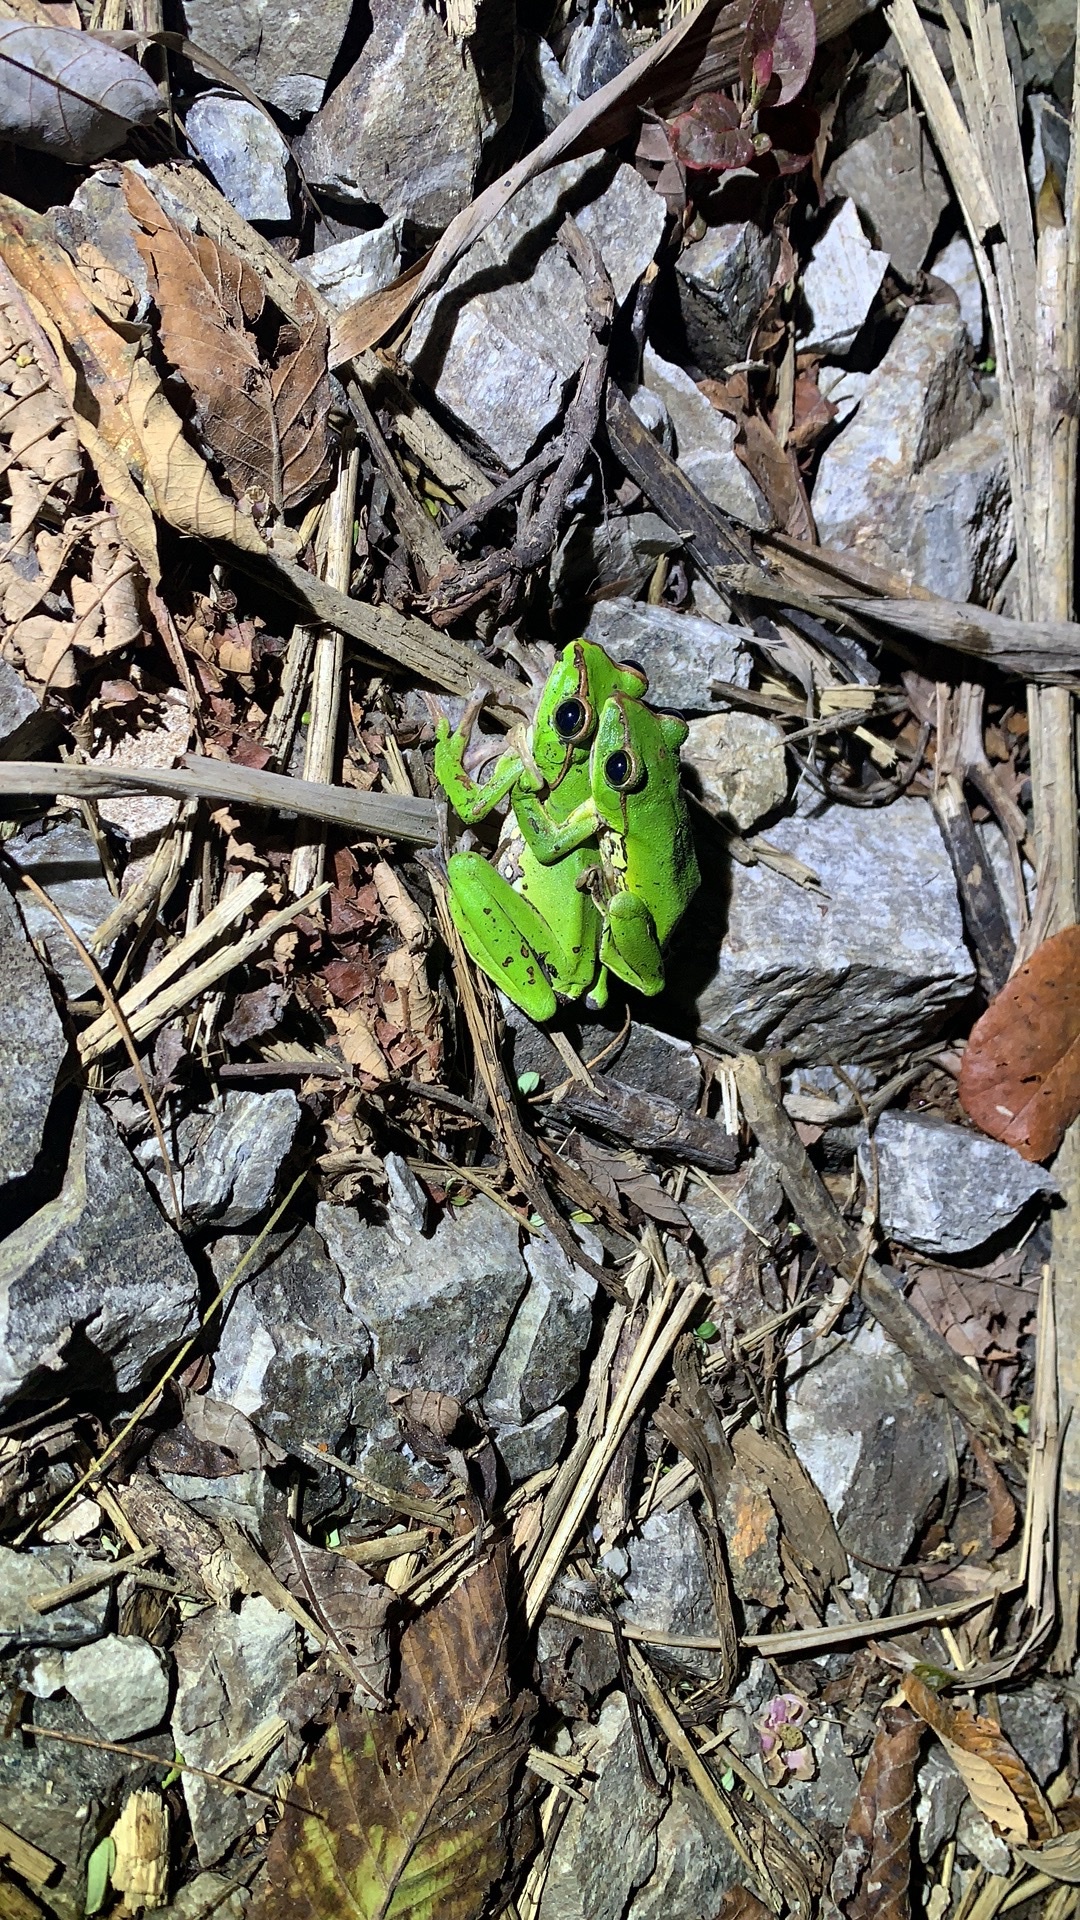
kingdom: Animalia
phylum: Chordata
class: Amphibia
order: Anura
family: Rhacophoridae
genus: Zhangixalus
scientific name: Zhangixalus feae
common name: Fea's treefrog
